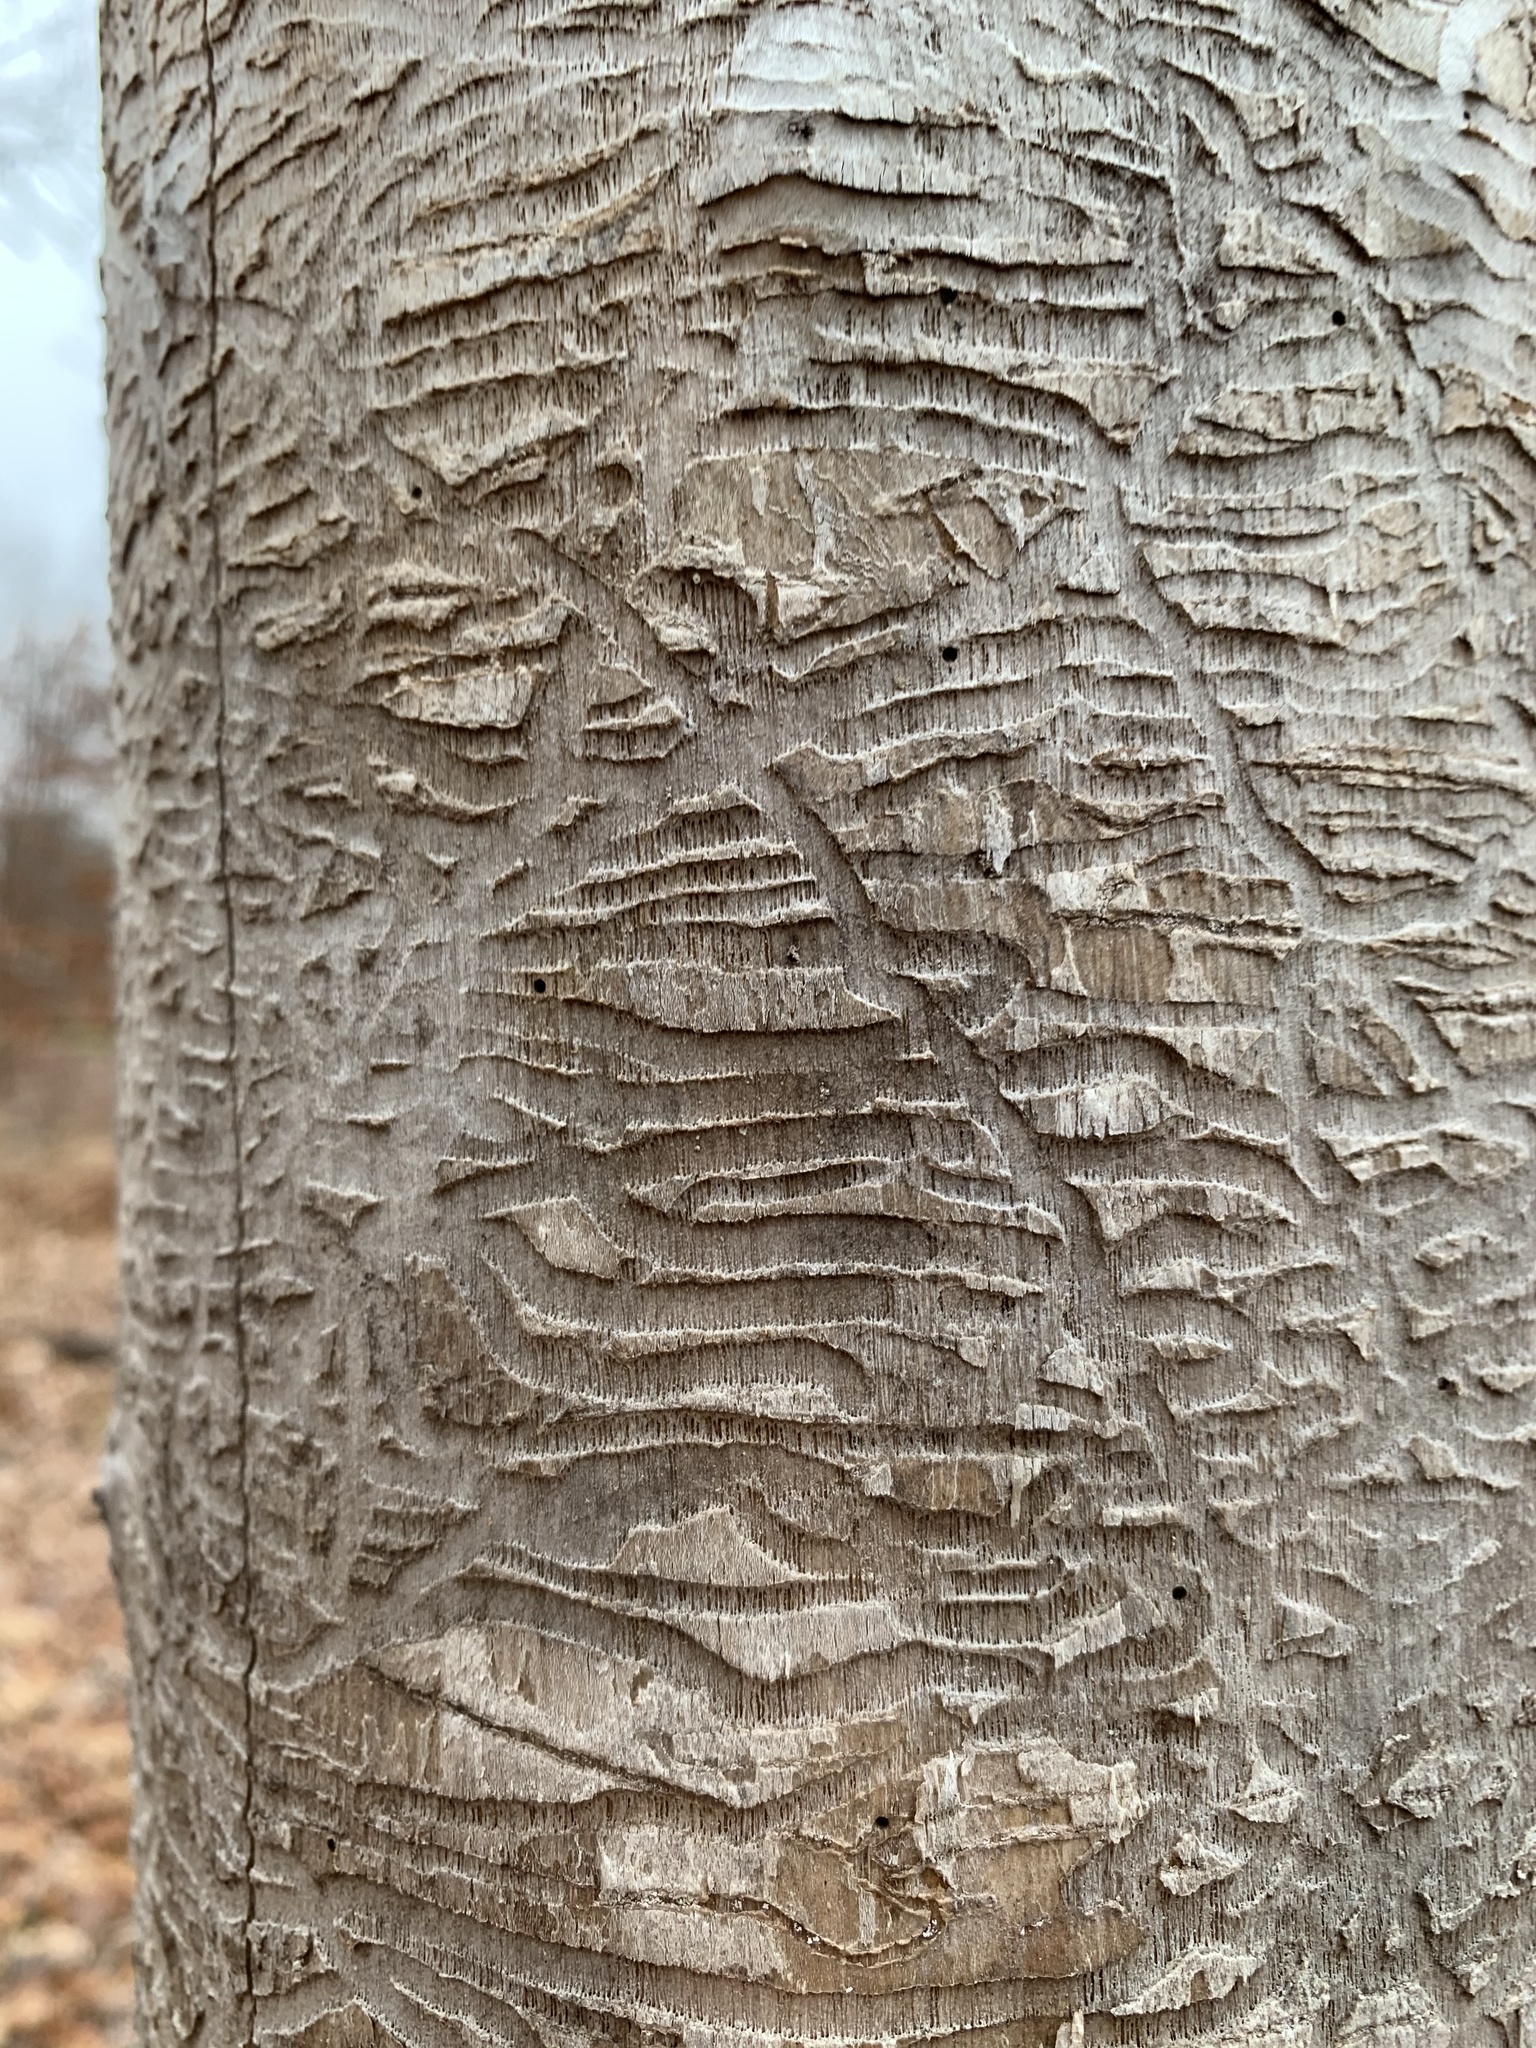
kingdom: Animalia
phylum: Arthropoda
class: Insecta
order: Coleoptera
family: Buprestidae
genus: Agrilus
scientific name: Agrilus planipennis
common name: Emerald ash borer
